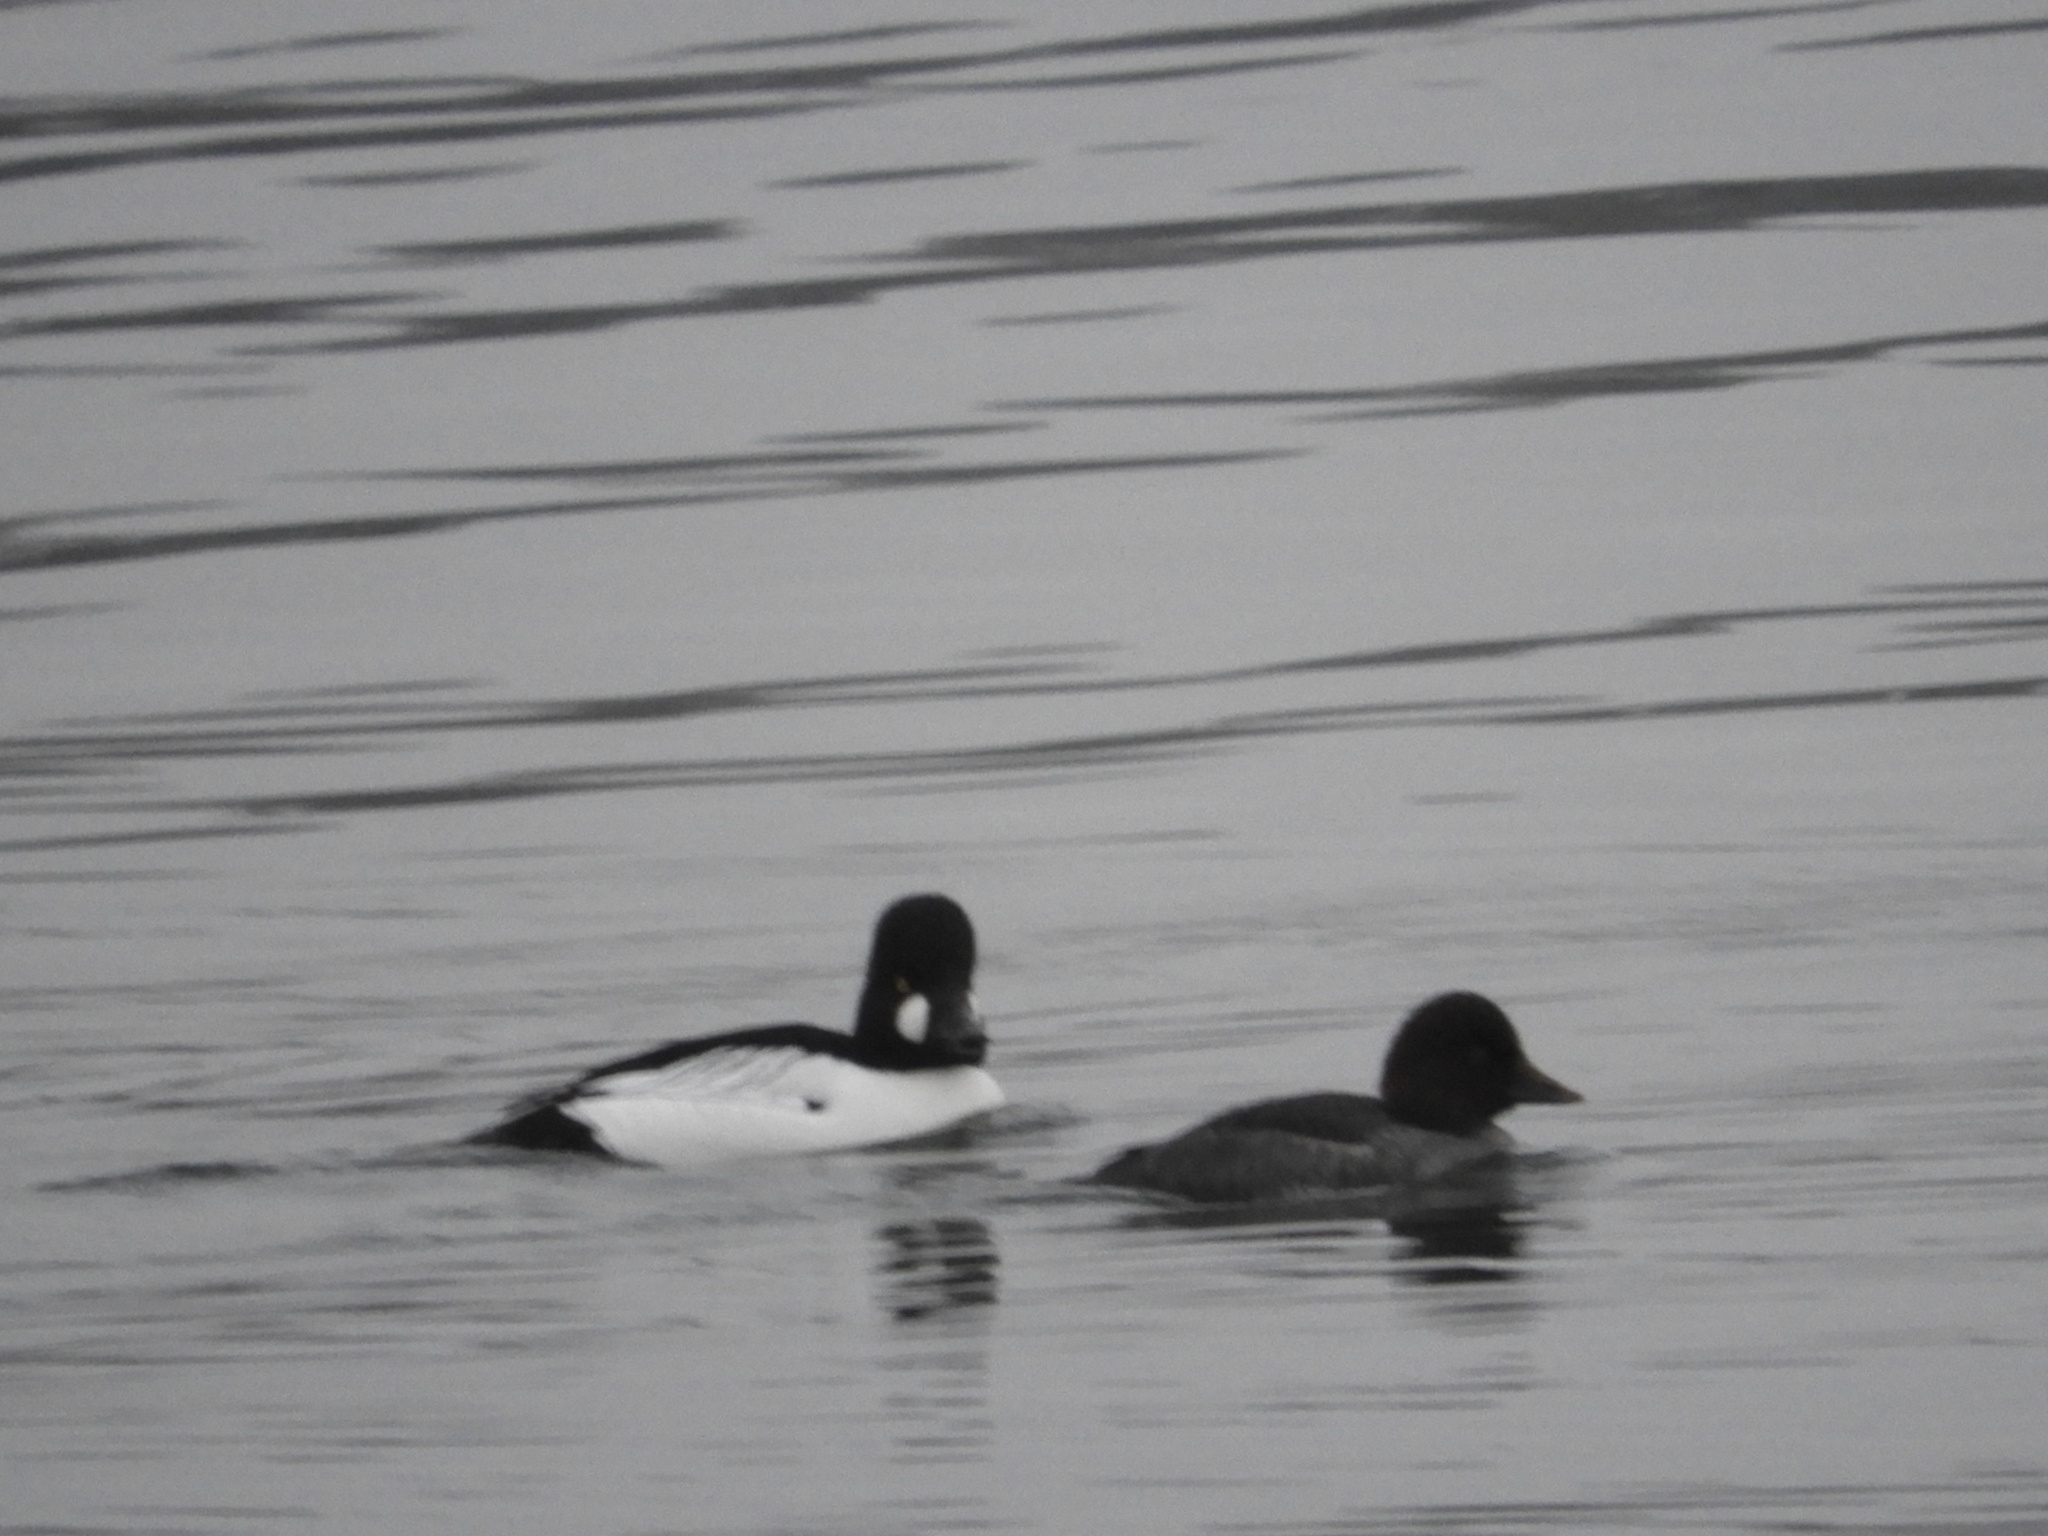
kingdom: Animalia
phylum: Chordata
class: Aves
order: Anseriformes
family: Anatidae
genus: Bucephala
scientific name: Bucephala clangula
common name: Common goldeneye
